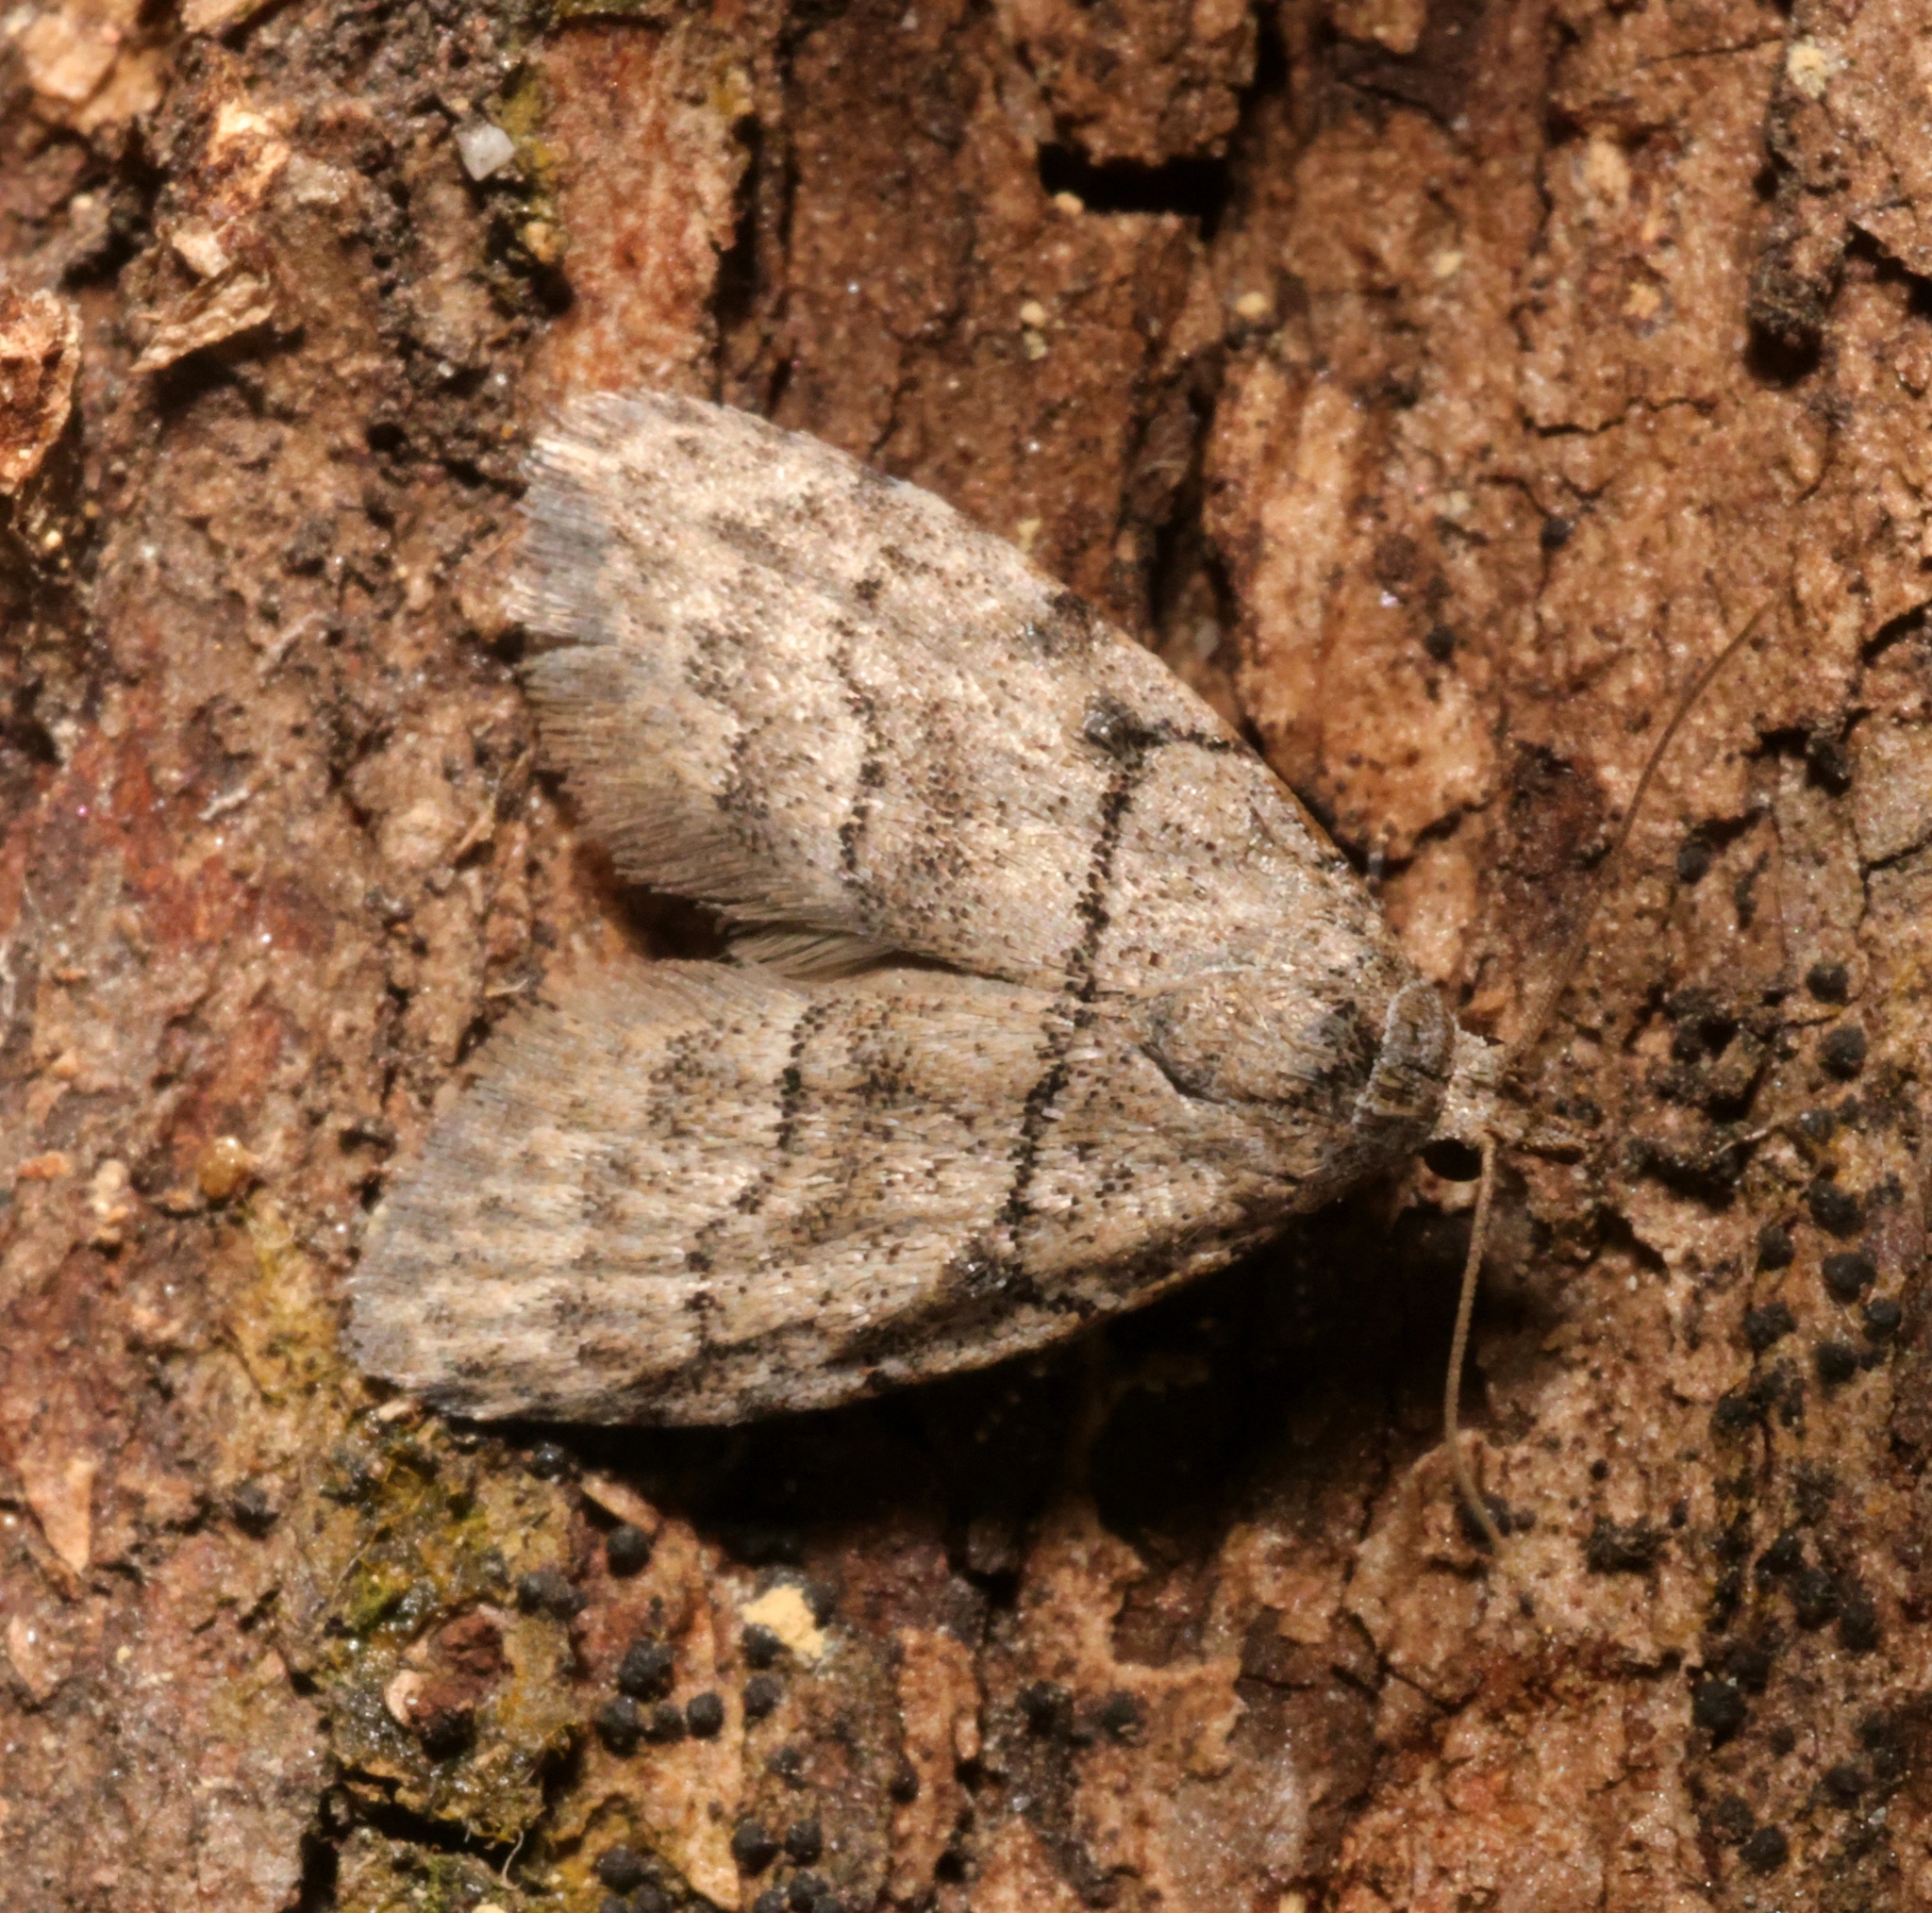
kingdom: Animalia
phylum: Arthropoda
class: Insecta
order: Lepidoptera
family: Nolidae
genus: Inouenola
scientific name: Inouenola pallescens
